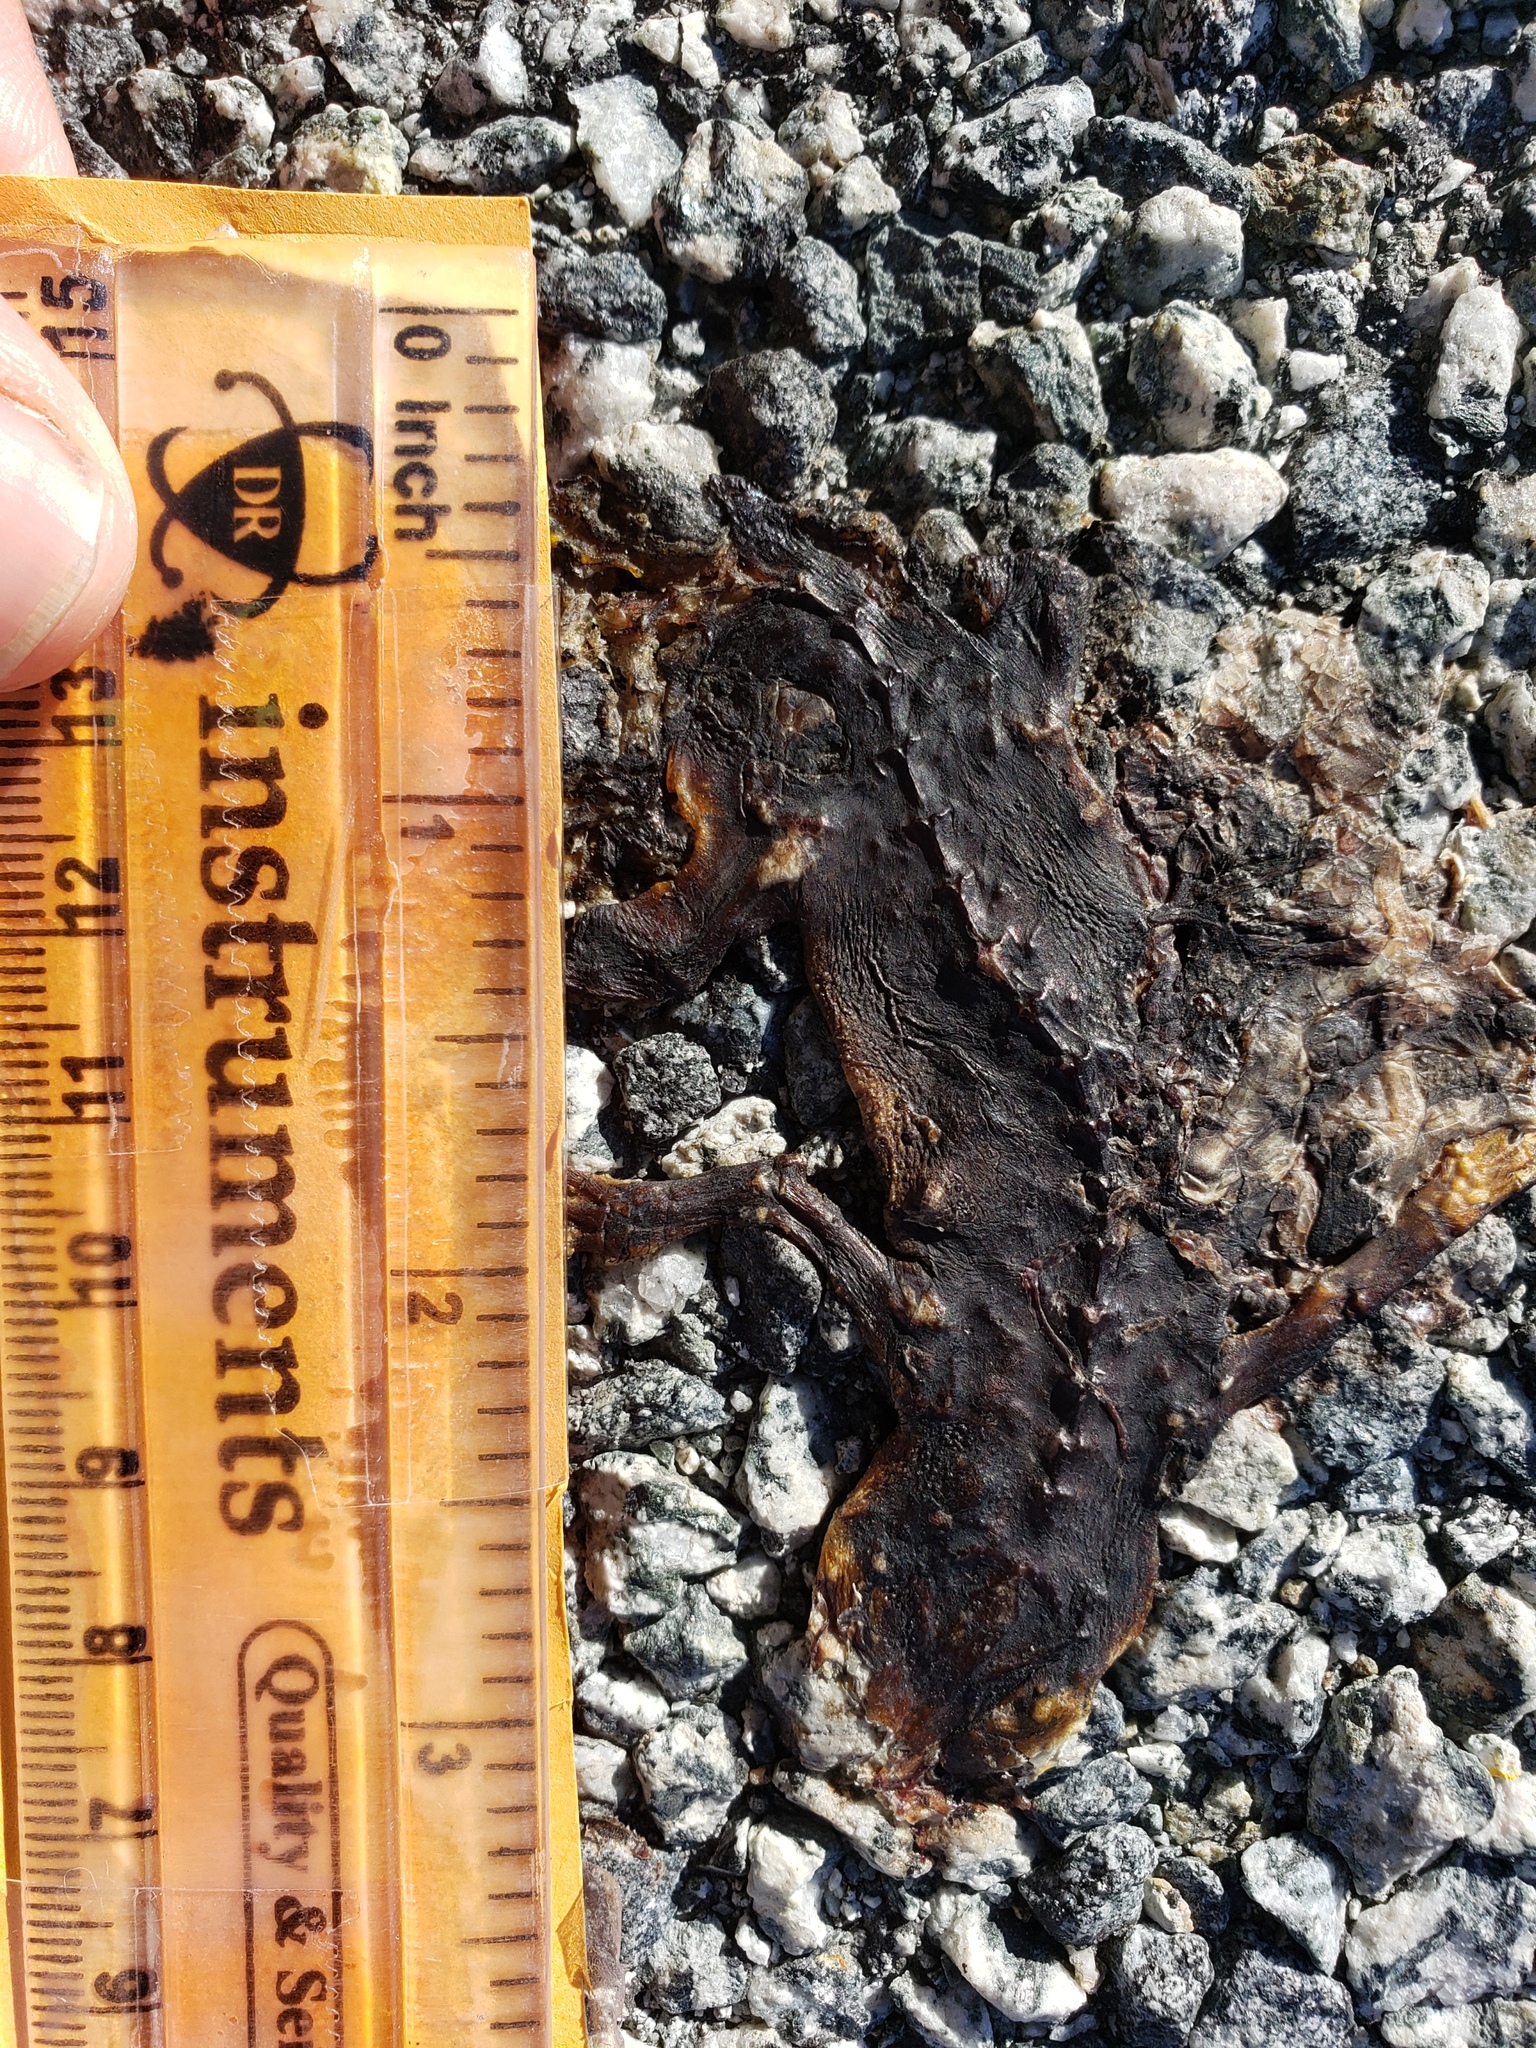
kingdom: Animalia
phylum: Chordata
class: Amphibia
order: Caudata
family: Salamandridae
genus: Taricha
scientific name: Taricha
